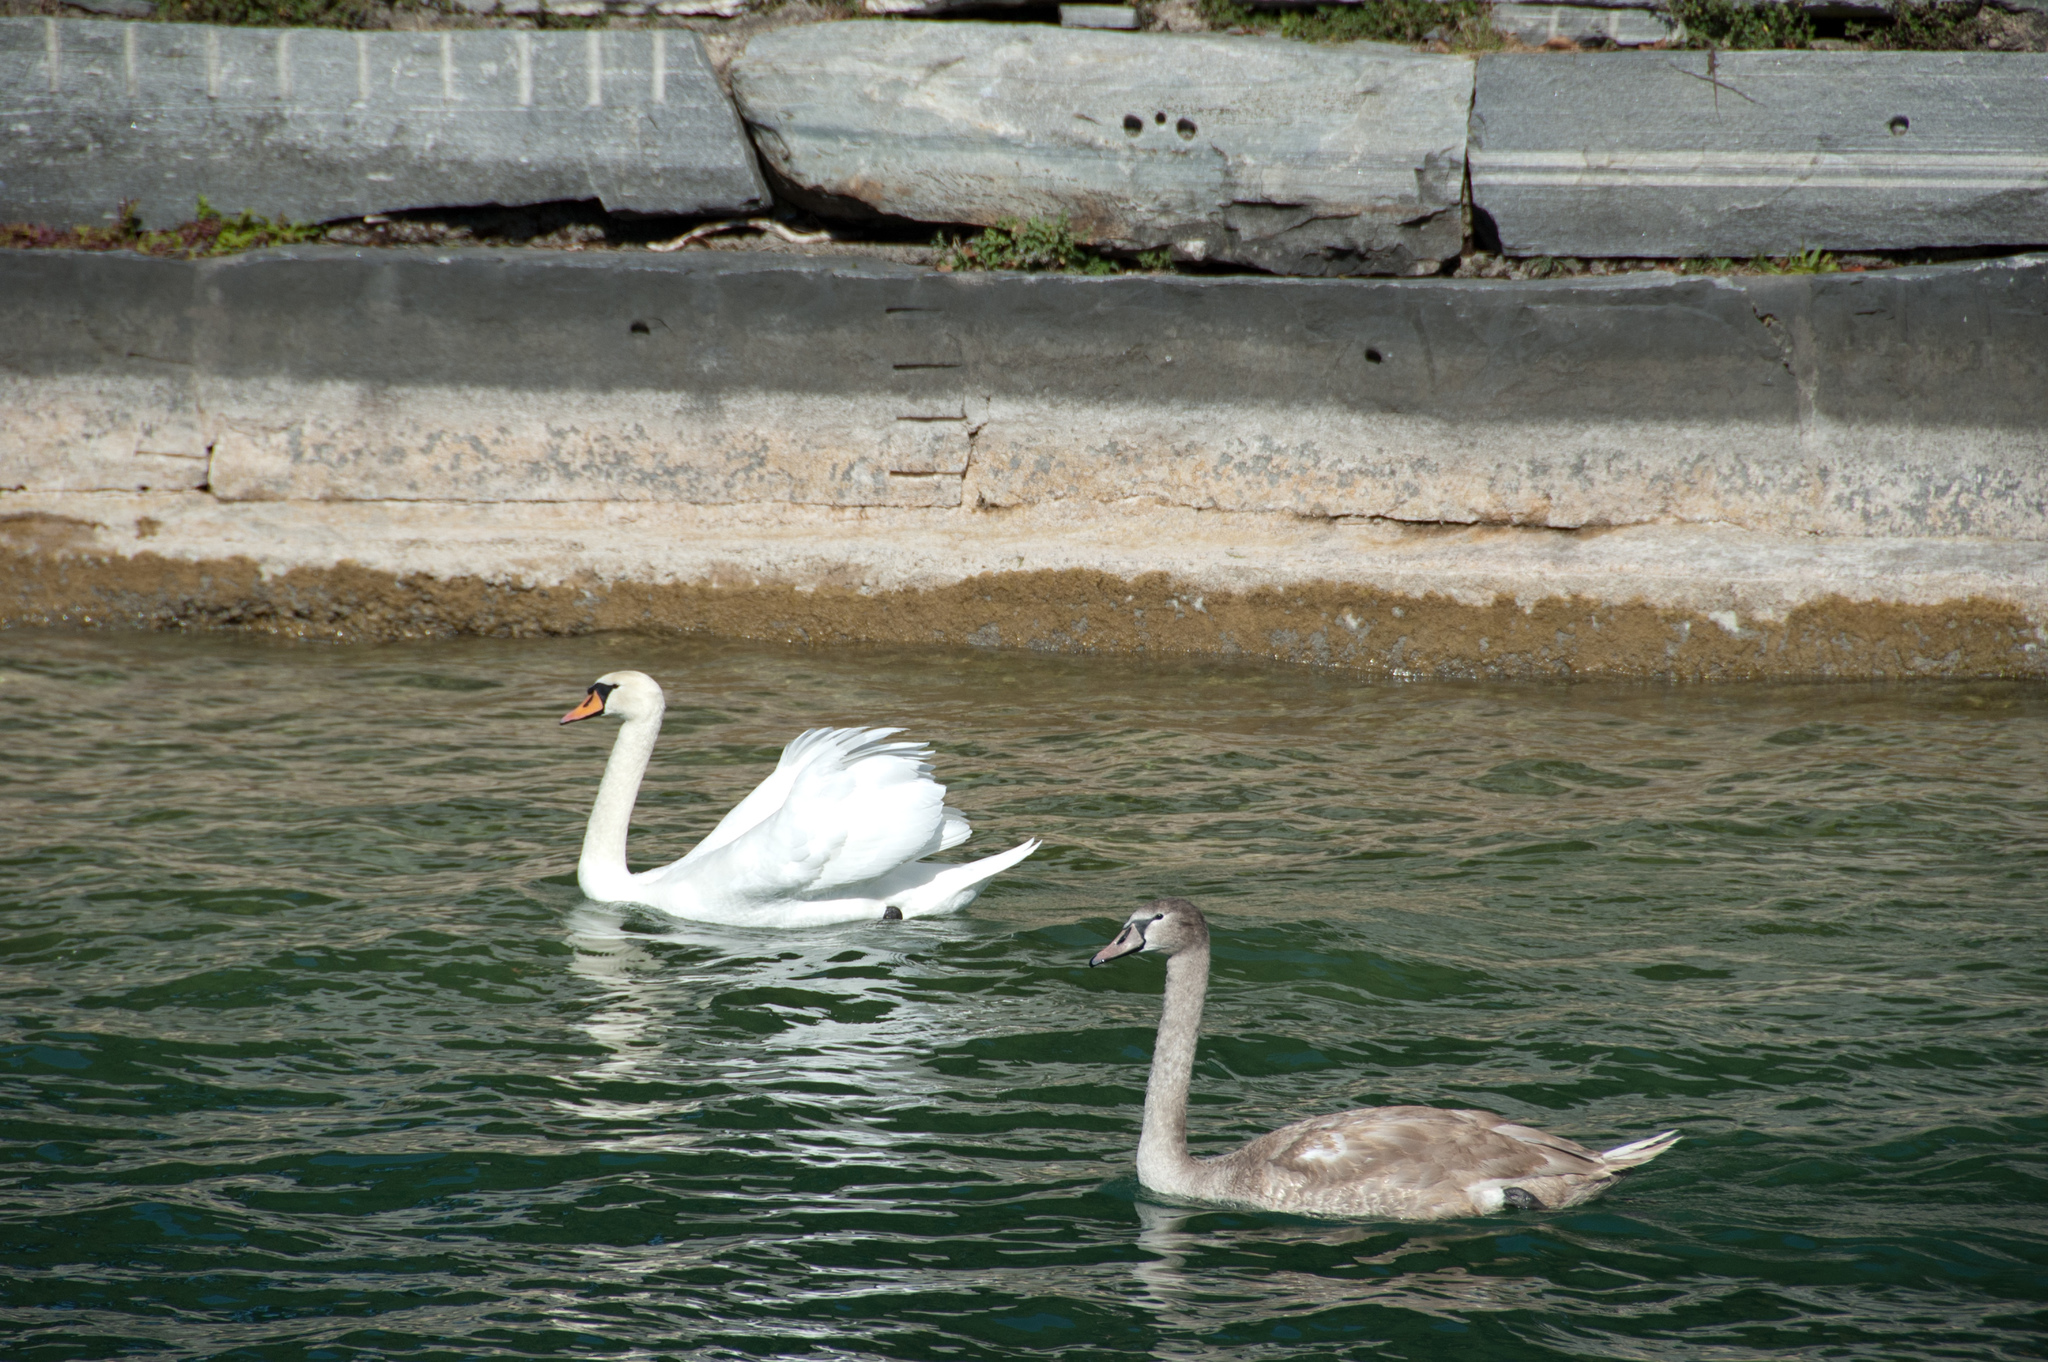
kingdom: Animalia
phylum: Chordata
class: Aves
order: Anseriformes
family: Anatidae
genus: Cygnus
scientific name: Cygnus olor
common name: Mute swan
